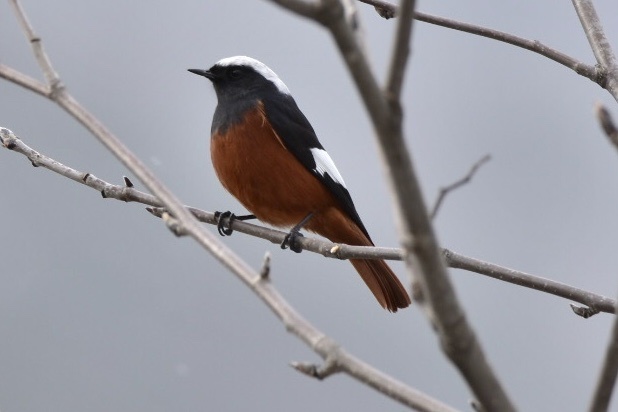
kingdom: Animalia
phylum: Chordata
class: Aves
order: Passeriformes
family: Muscicapidae
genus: Phoenicurus
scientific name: Phoenicurus erythrogastrus
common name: Güldenstädt's redstart
